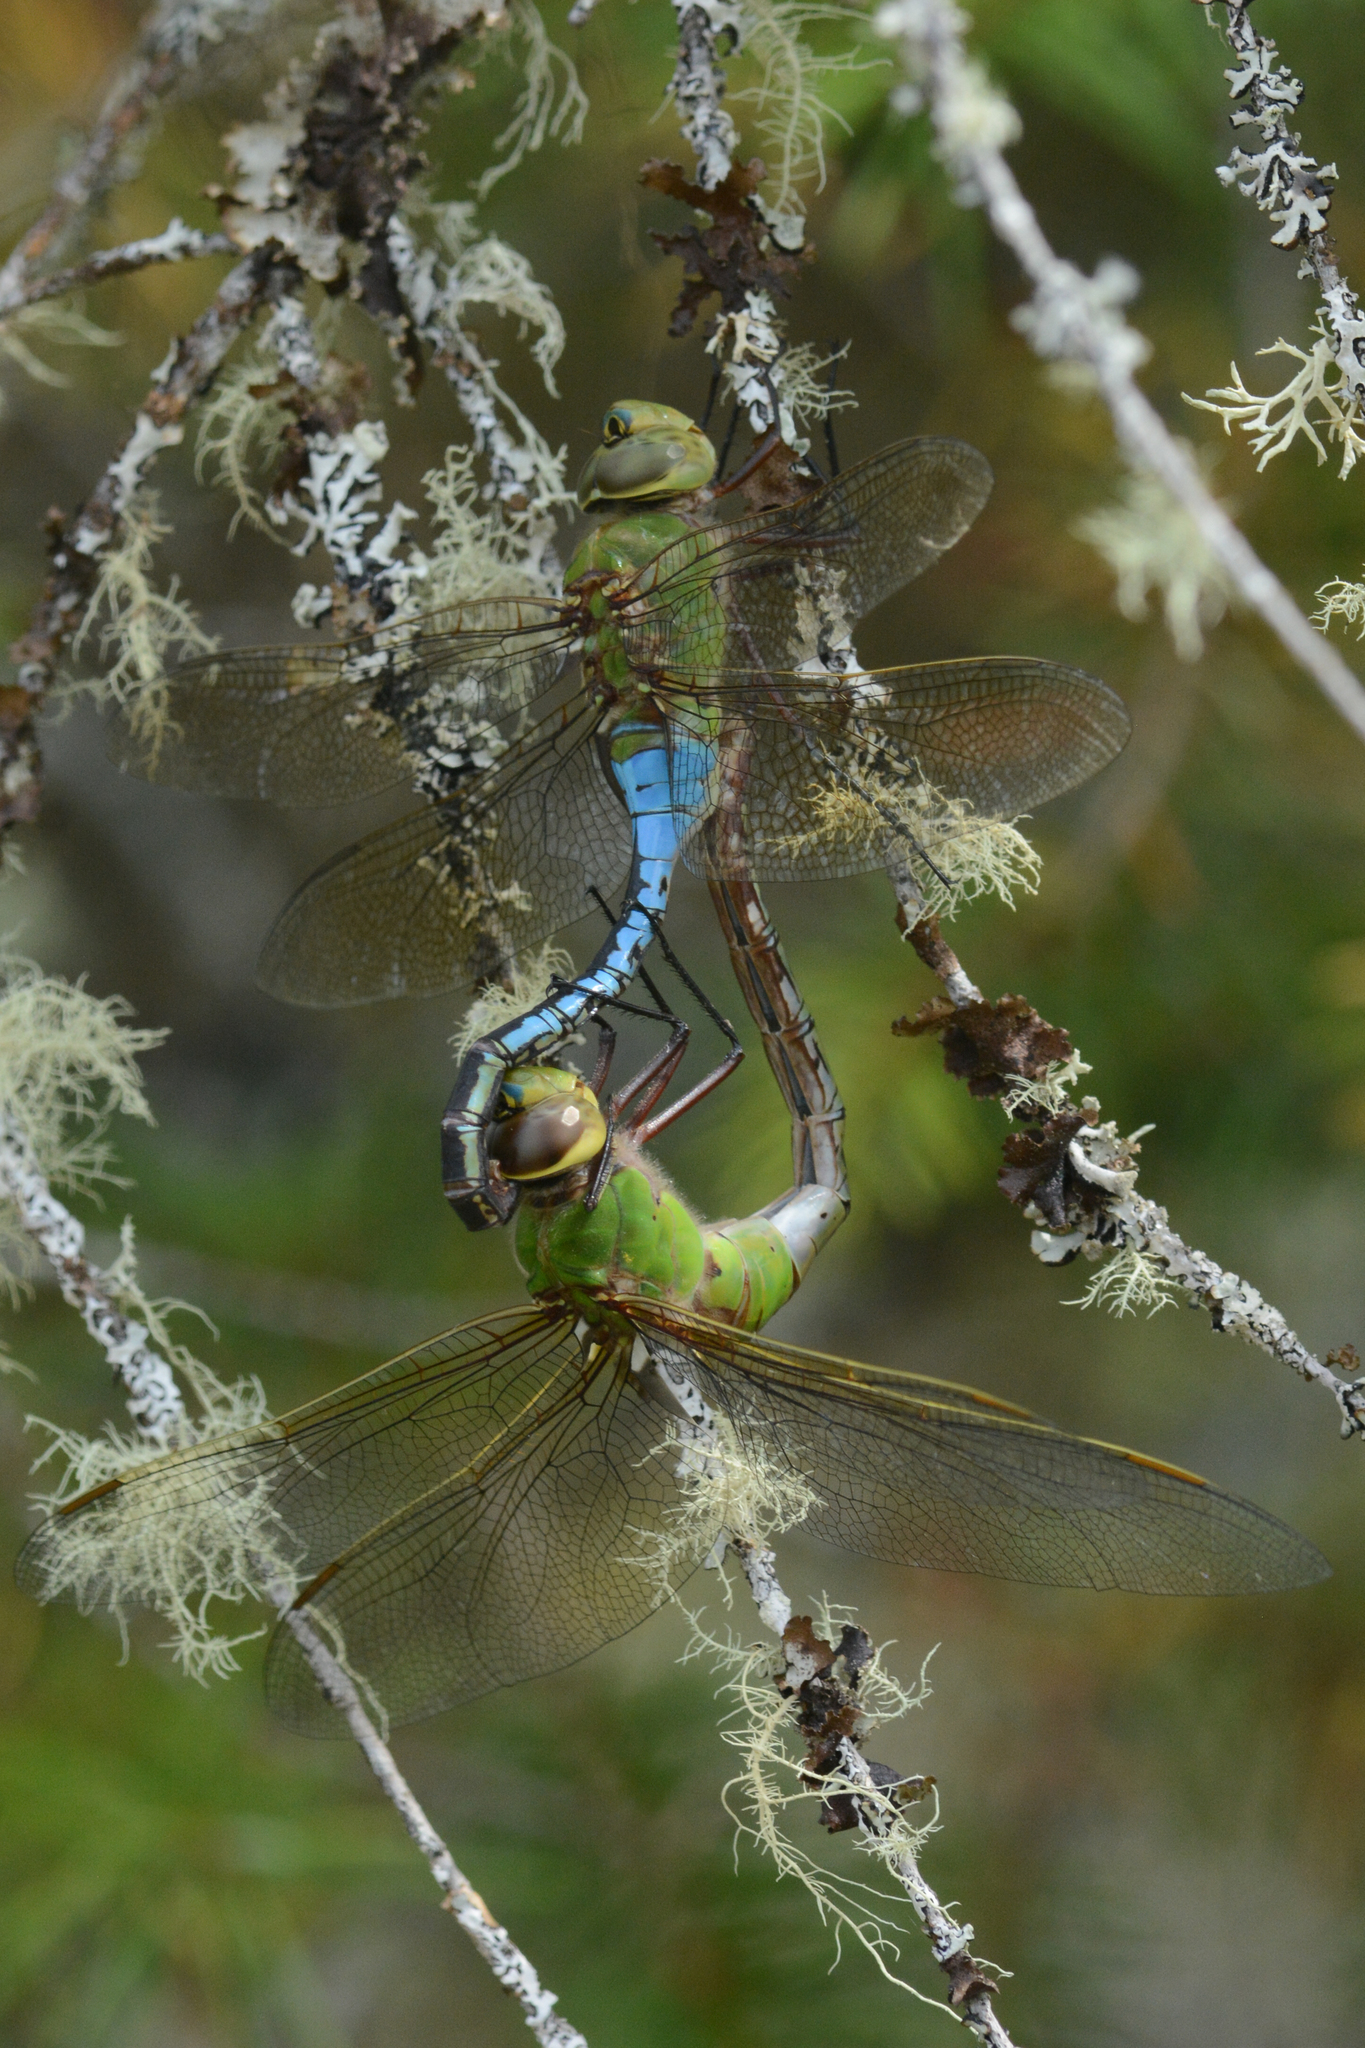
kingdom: Animalia
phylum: Arthropoda
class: Insecta
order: Odonata
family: Aeshnidae
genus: Anax
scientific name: Anax junius
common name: Common green darner
